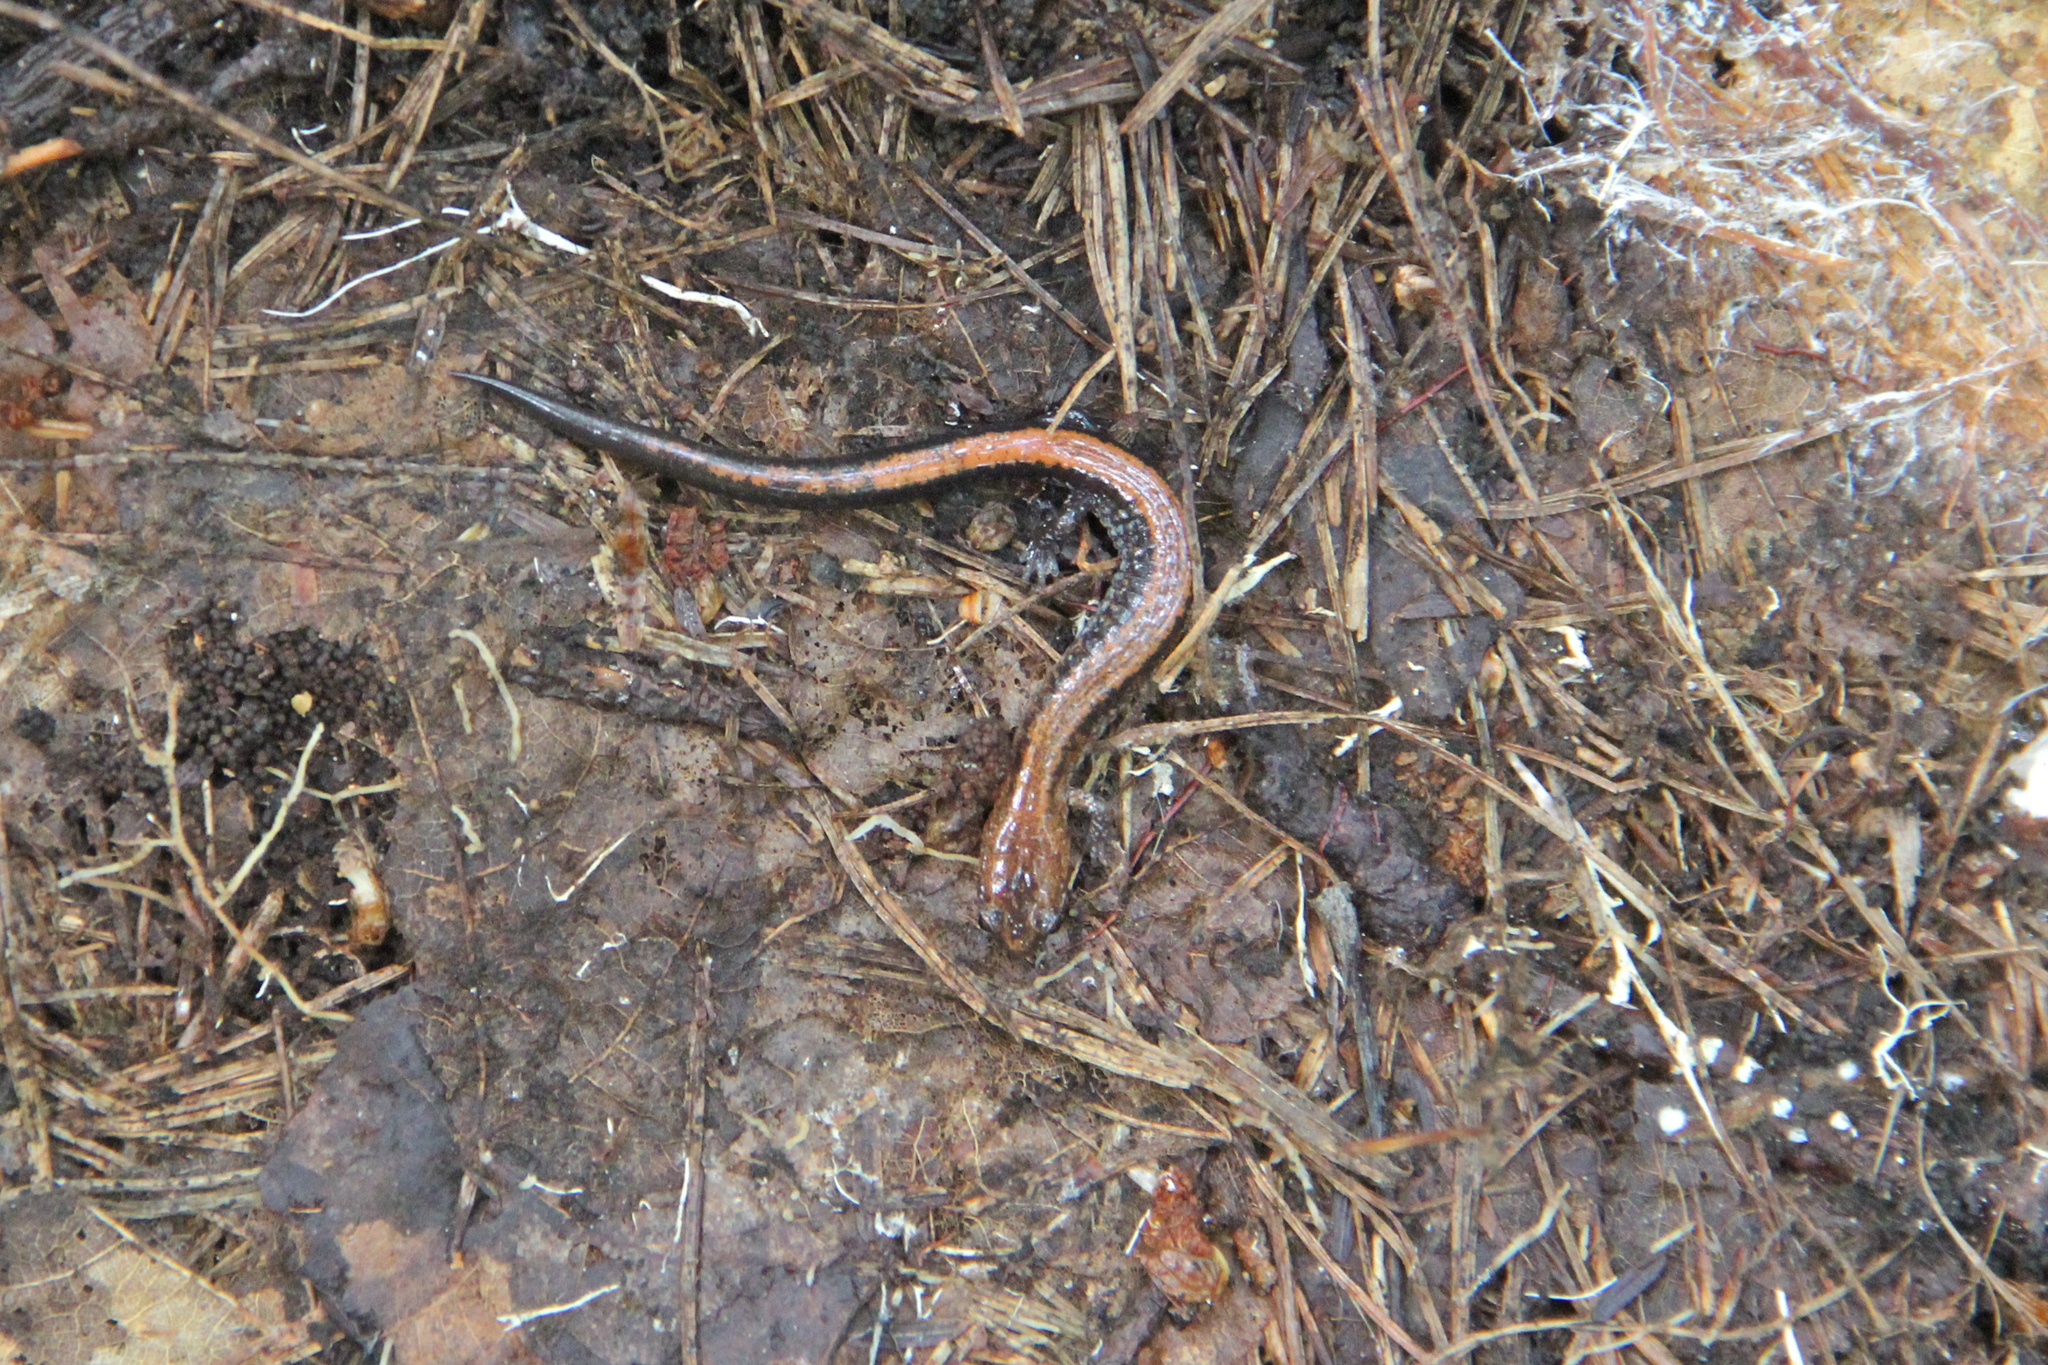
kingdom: Animalia
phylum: Chordata
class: Amphibia
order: Caudata
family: Plethodontidae
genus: Plethodon
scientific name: Plethodon cinereus
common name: Redback salamander
